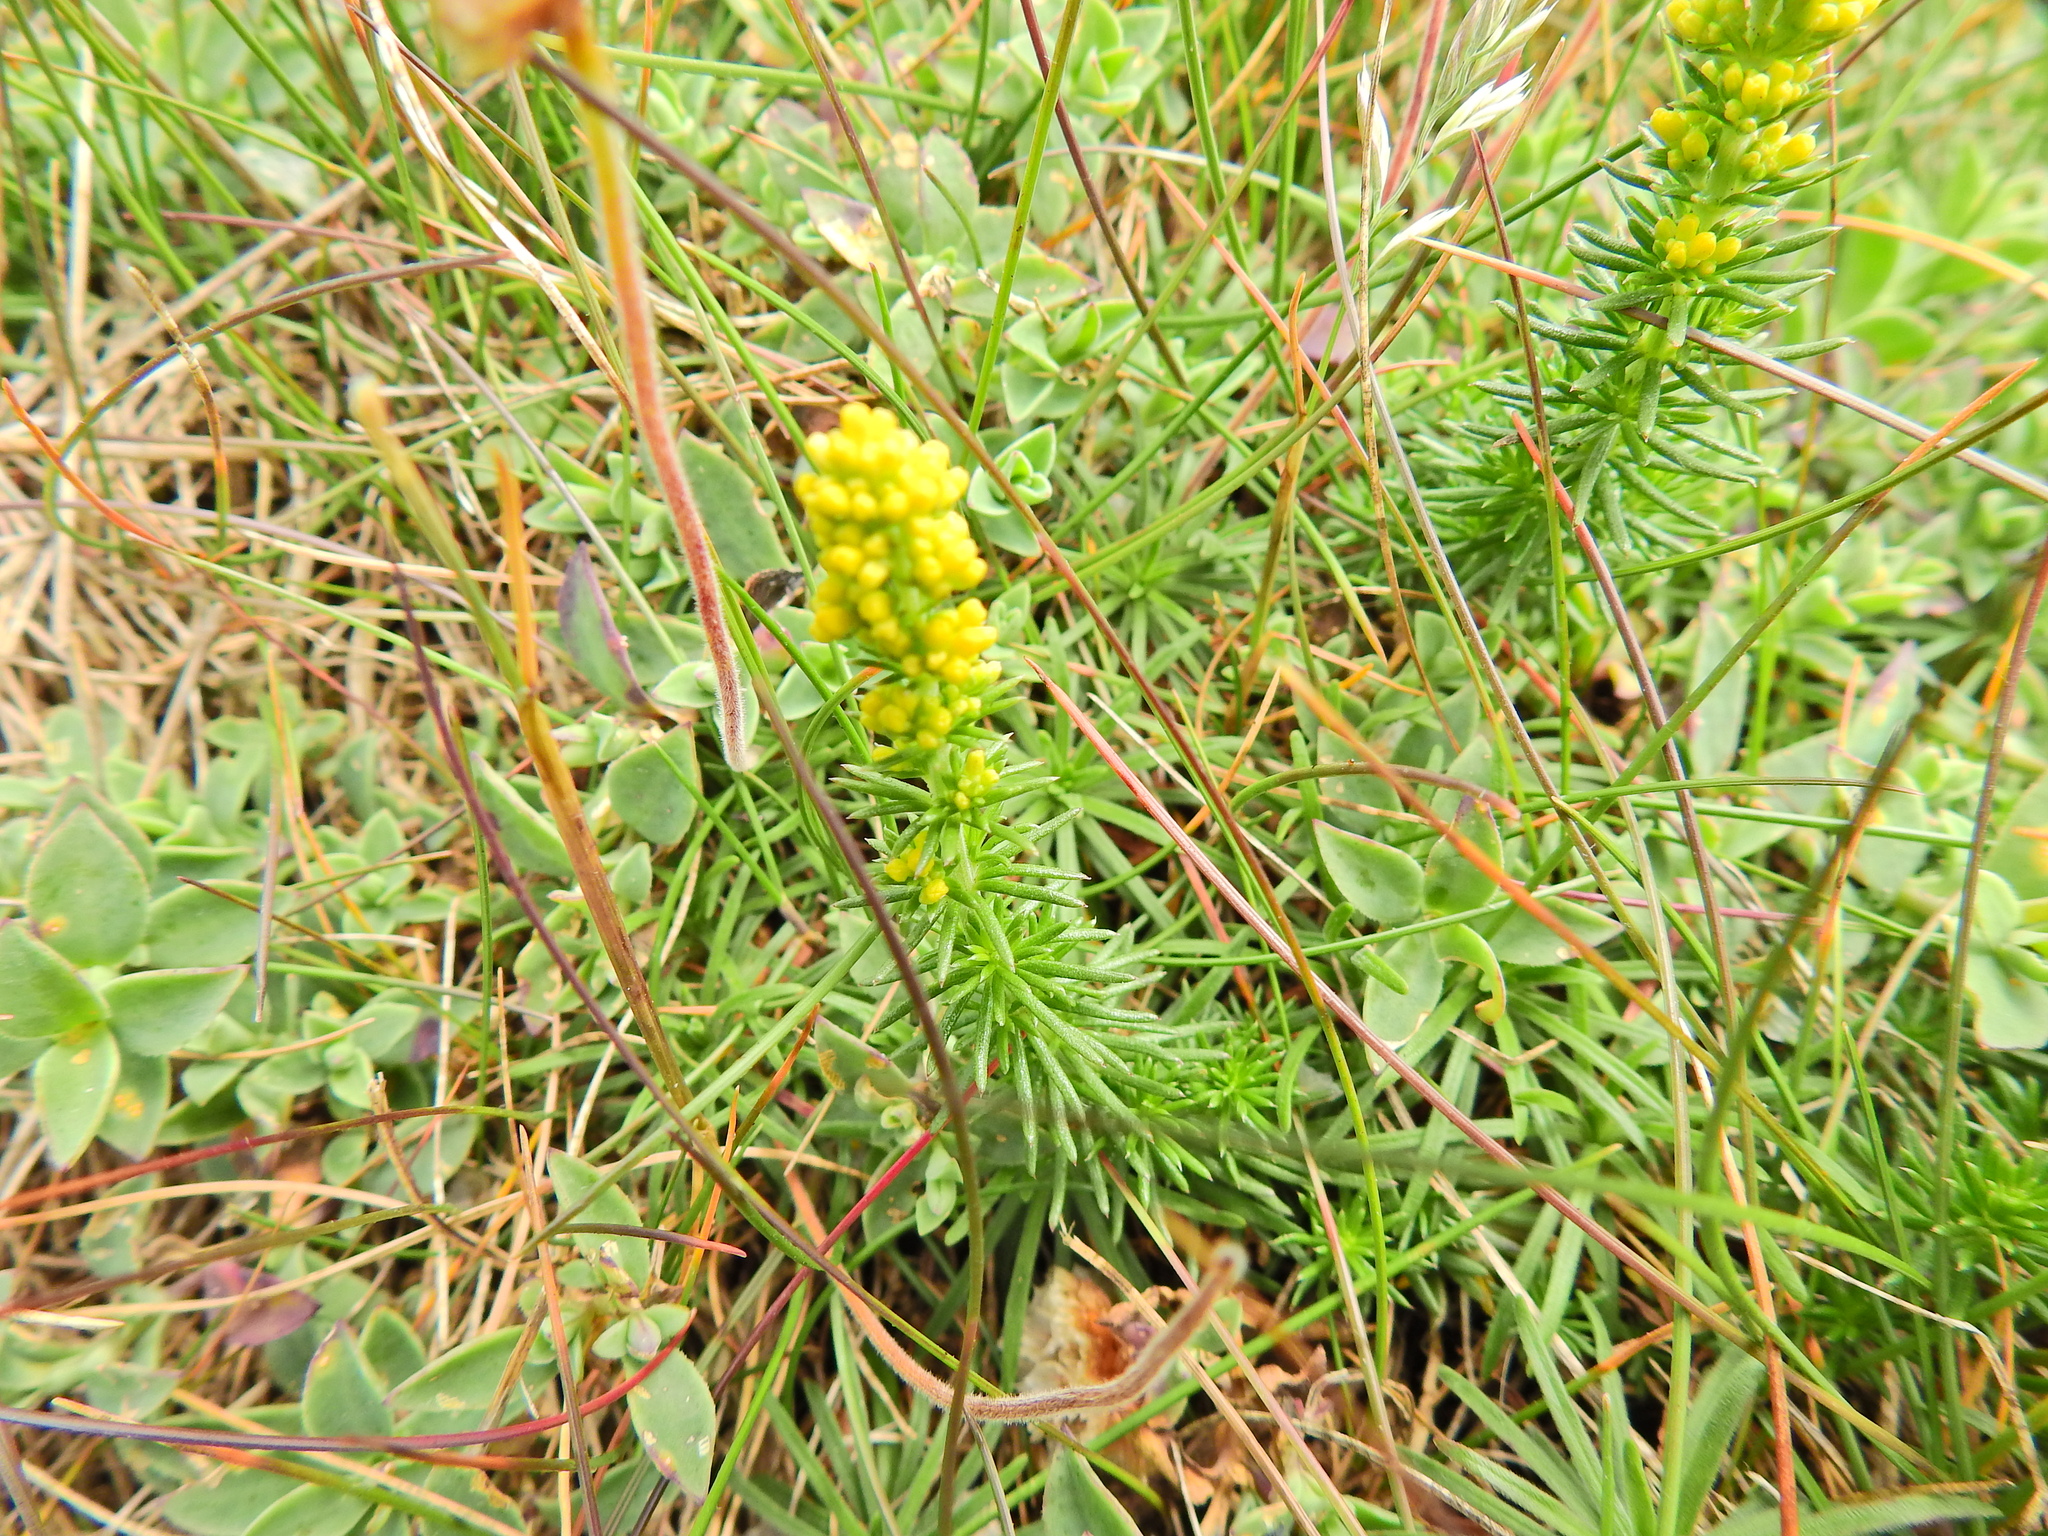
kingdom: Plantae
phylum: Tracheophyta
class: Magnoliopsida
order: Gentianales
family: Rubiaceae
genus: Galium
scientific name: Galium verum
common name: Lady's bedstraw
